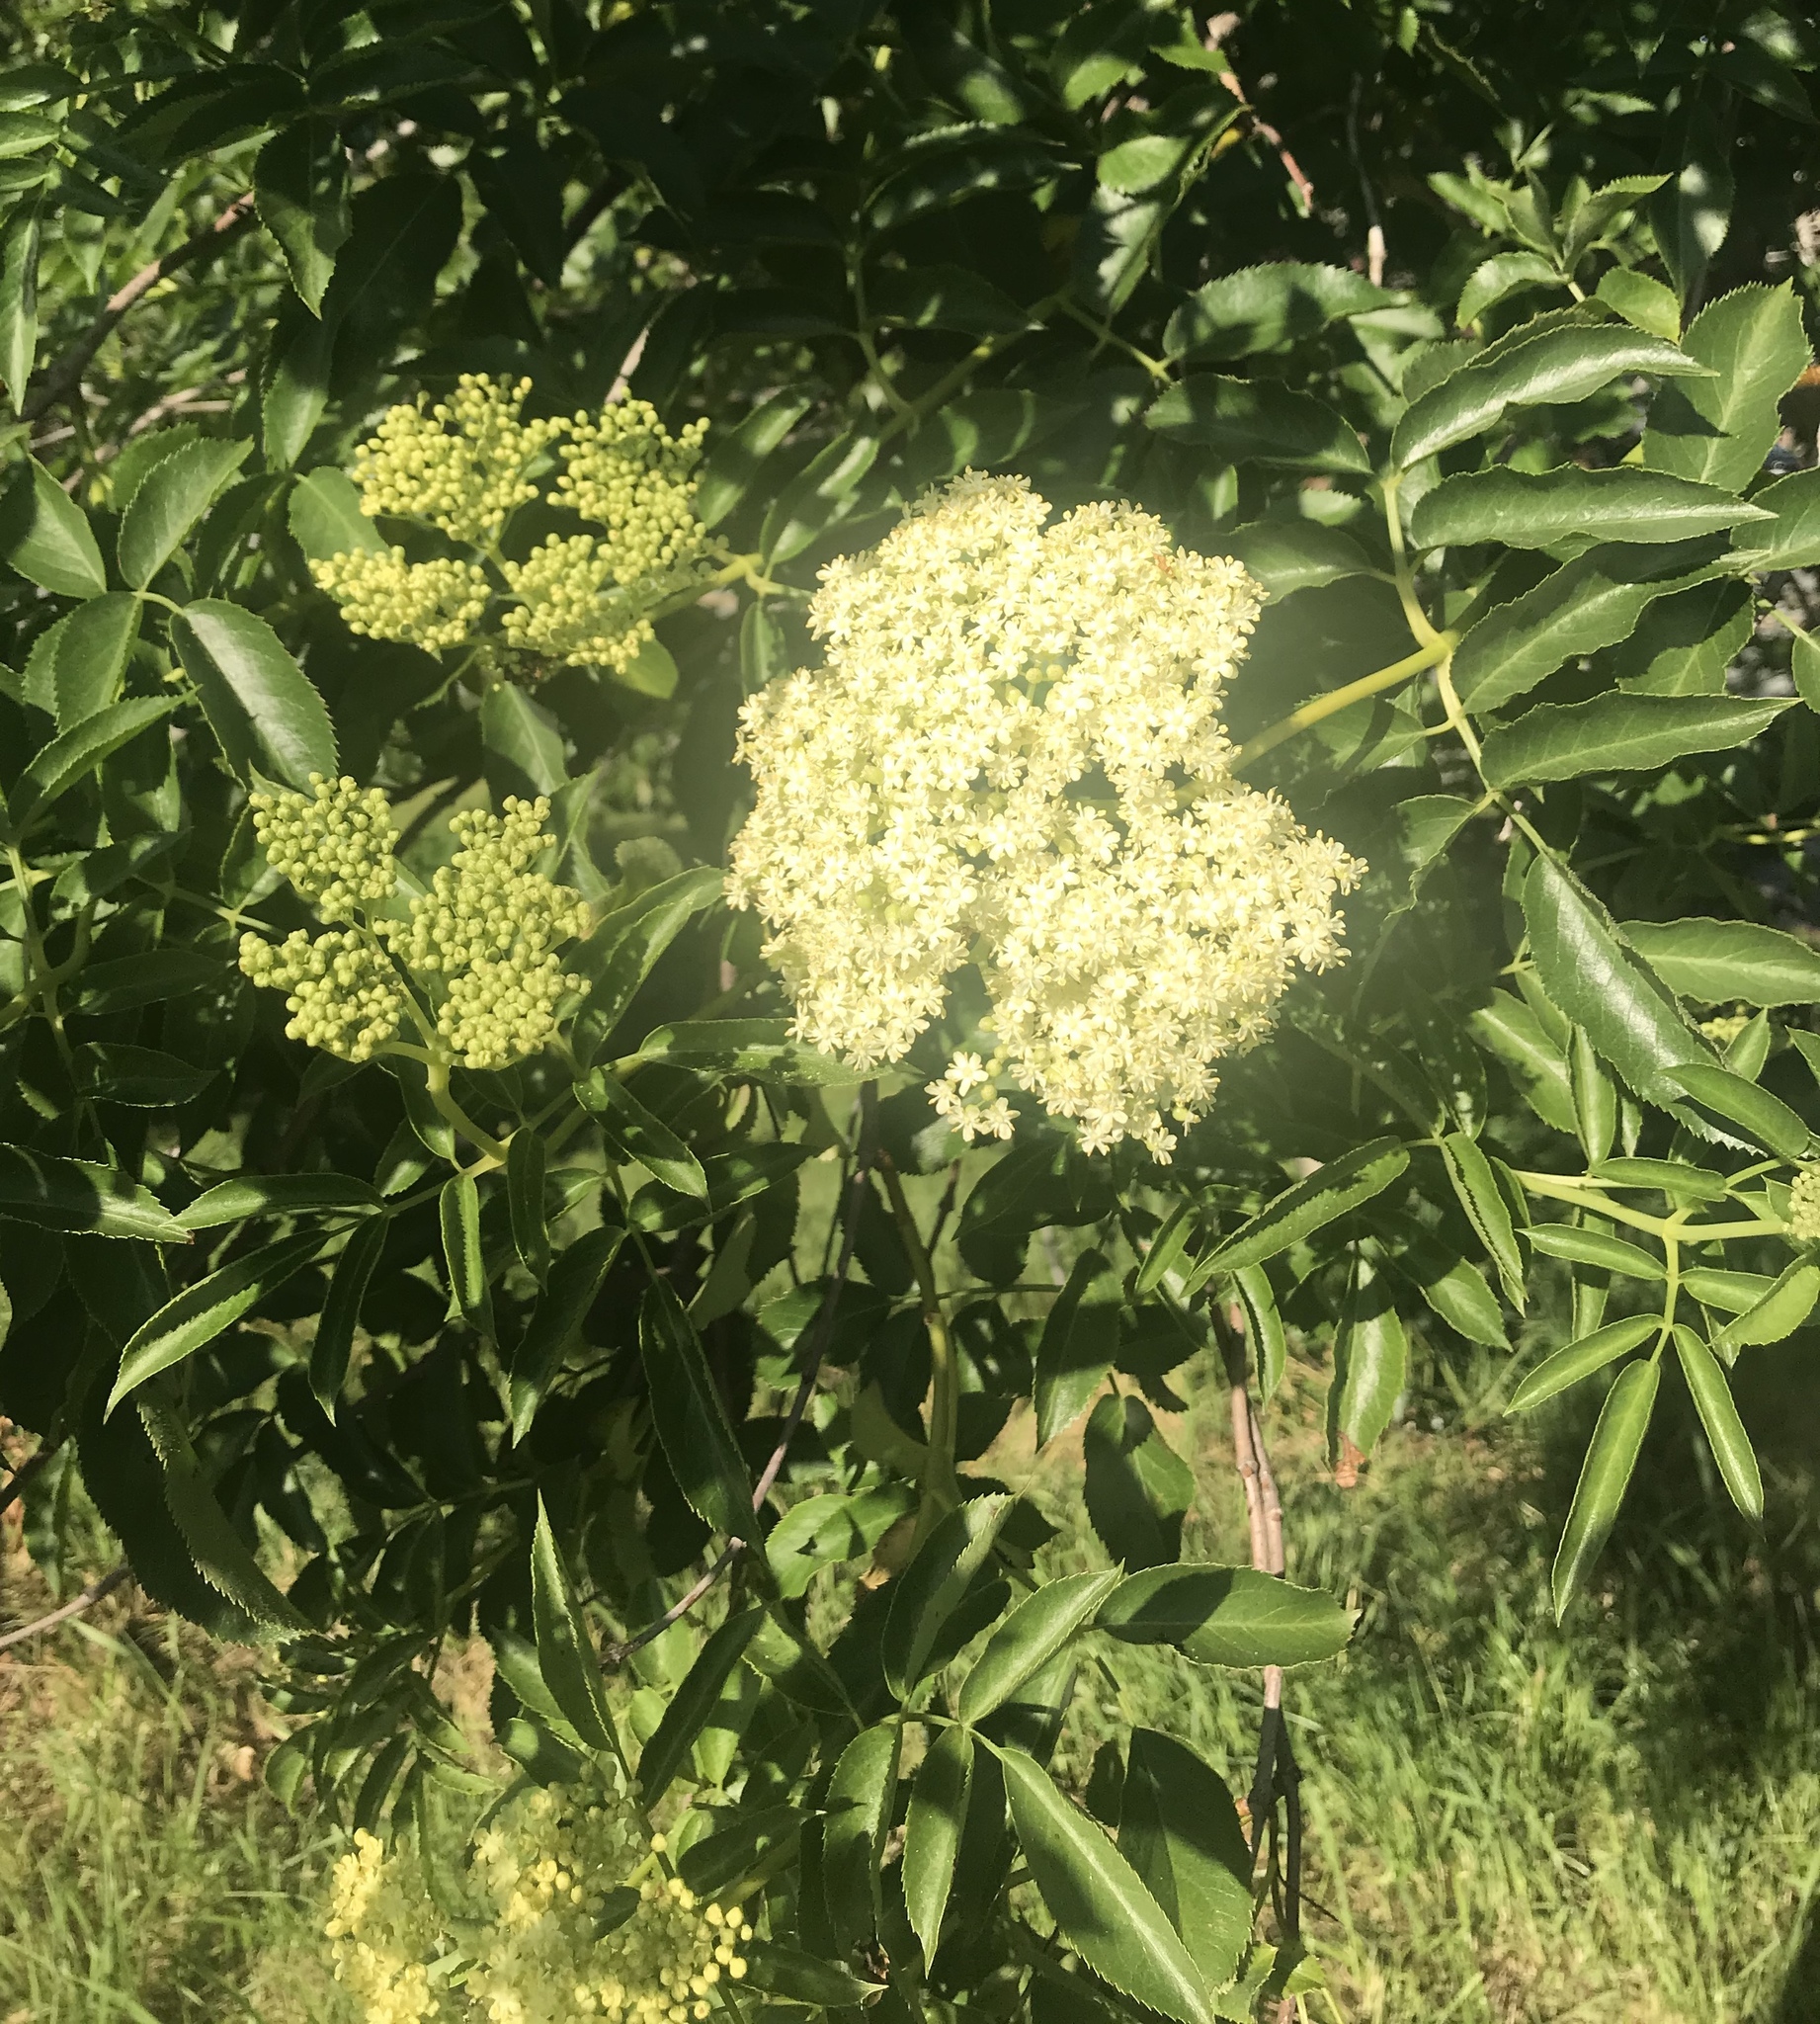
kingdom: Plantae
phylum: Tracheophyta
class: Magnoliopsida
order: Dipsacales
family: Viburnaceae
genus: Sambucus
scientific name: Sambucus cerulea
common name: Blue elder
